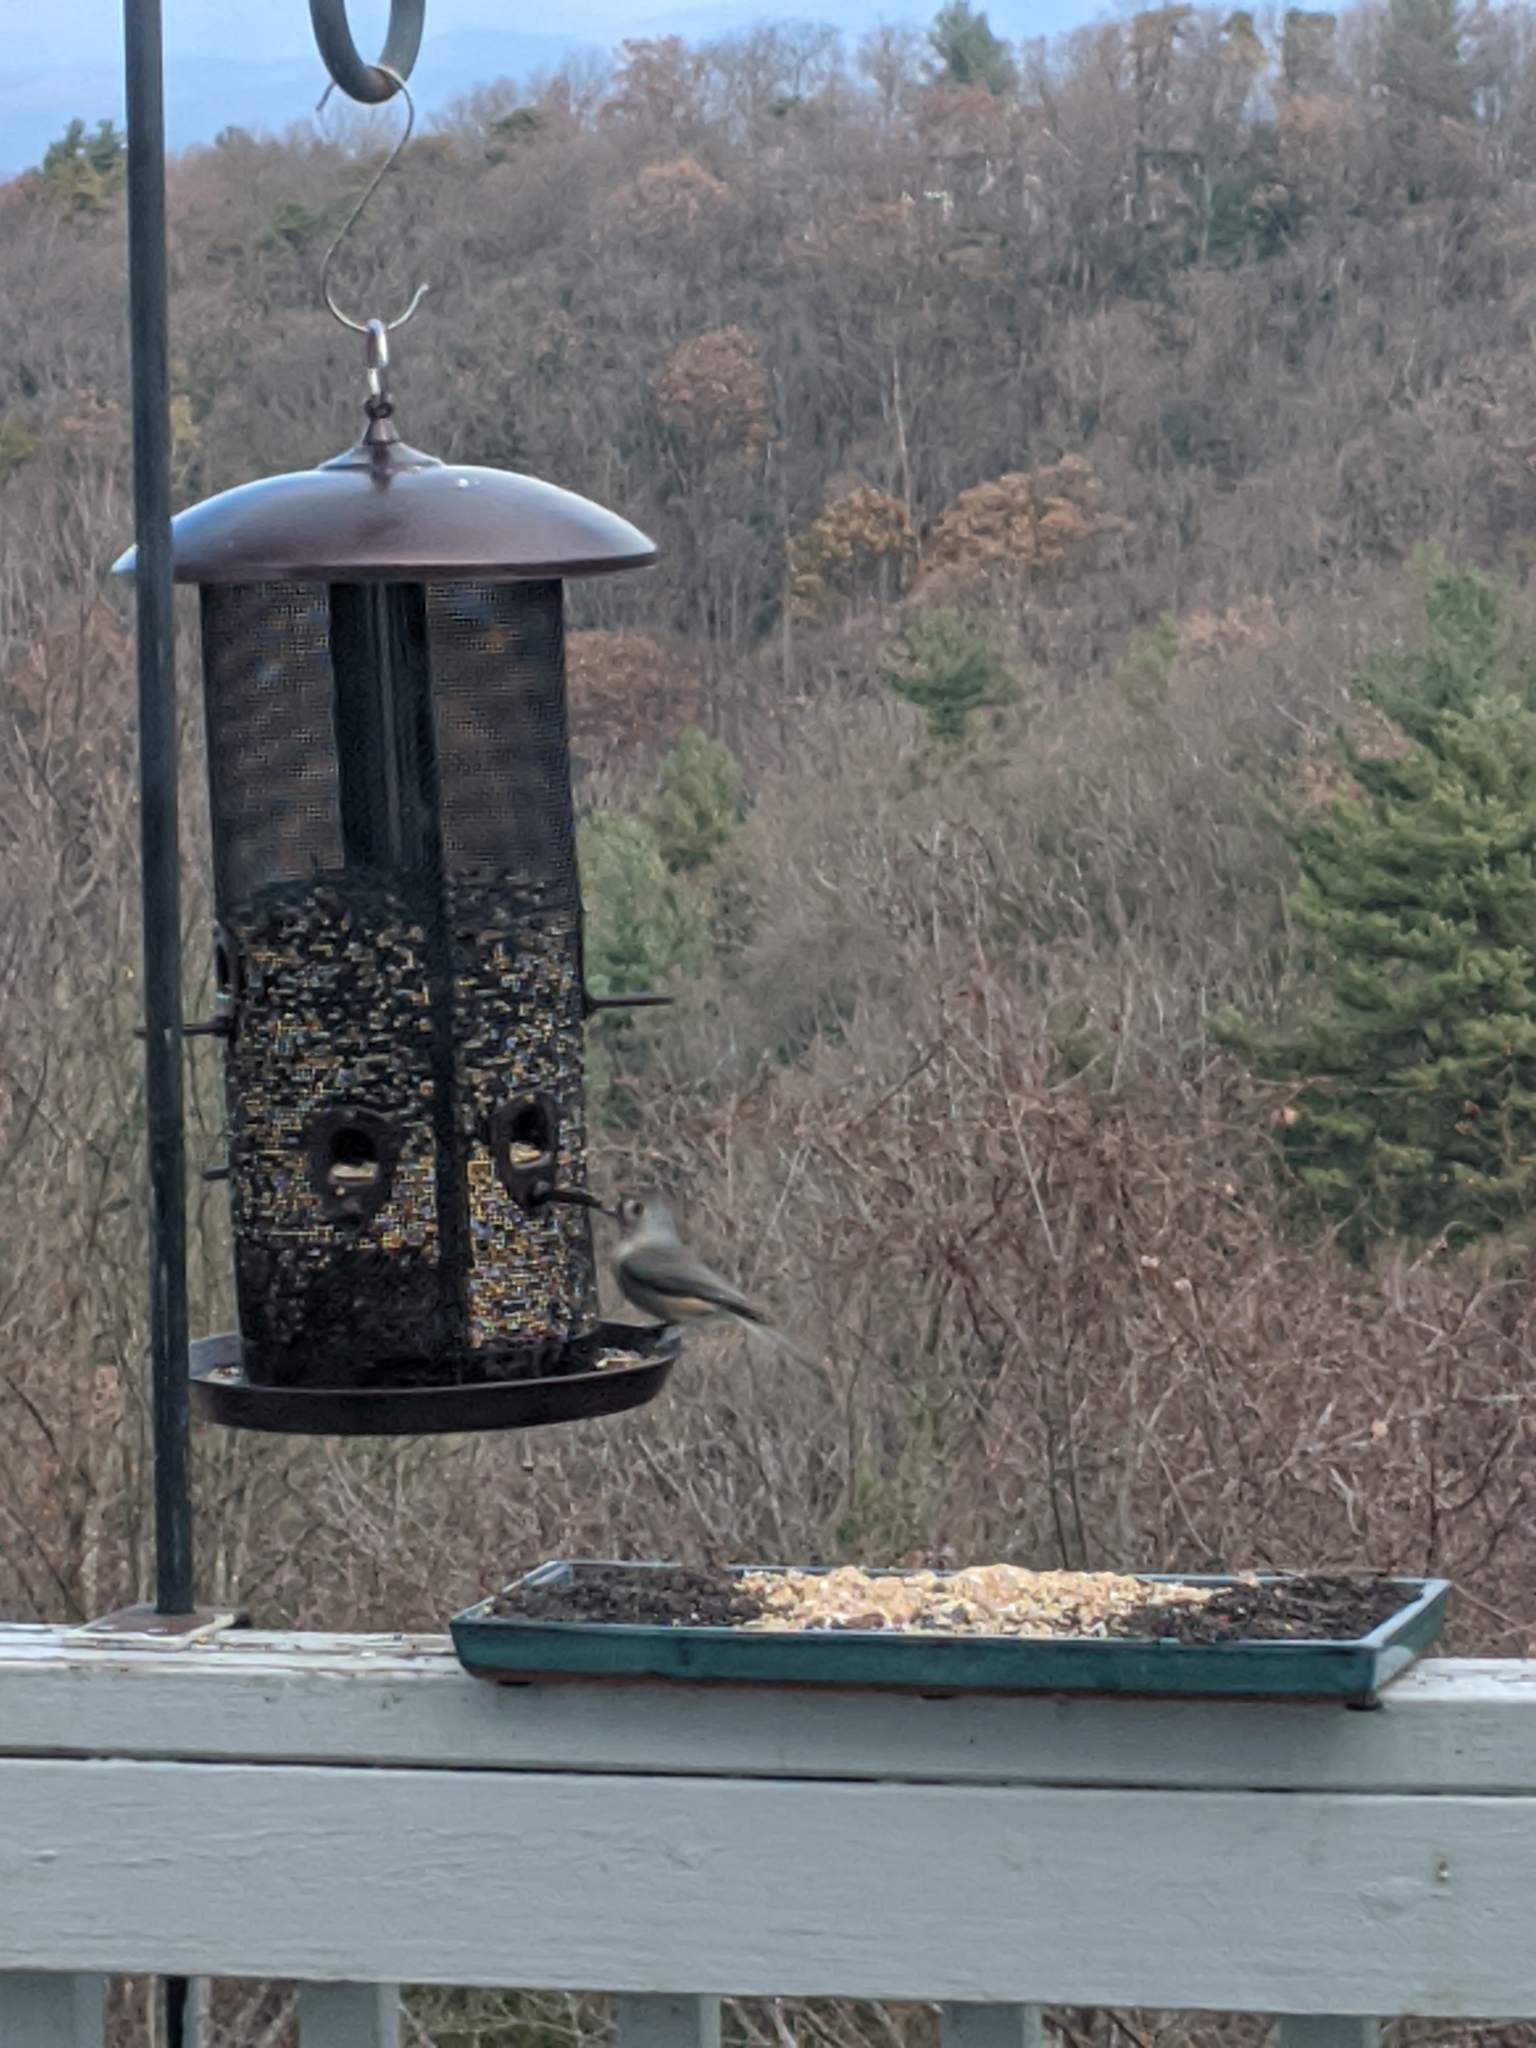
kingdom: Animalia
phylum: Chordata
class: Aves
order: Passeriformes
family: Paridae
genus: Baeolophus
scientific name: Baeolophus bicolor
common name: Tufted titmouse
